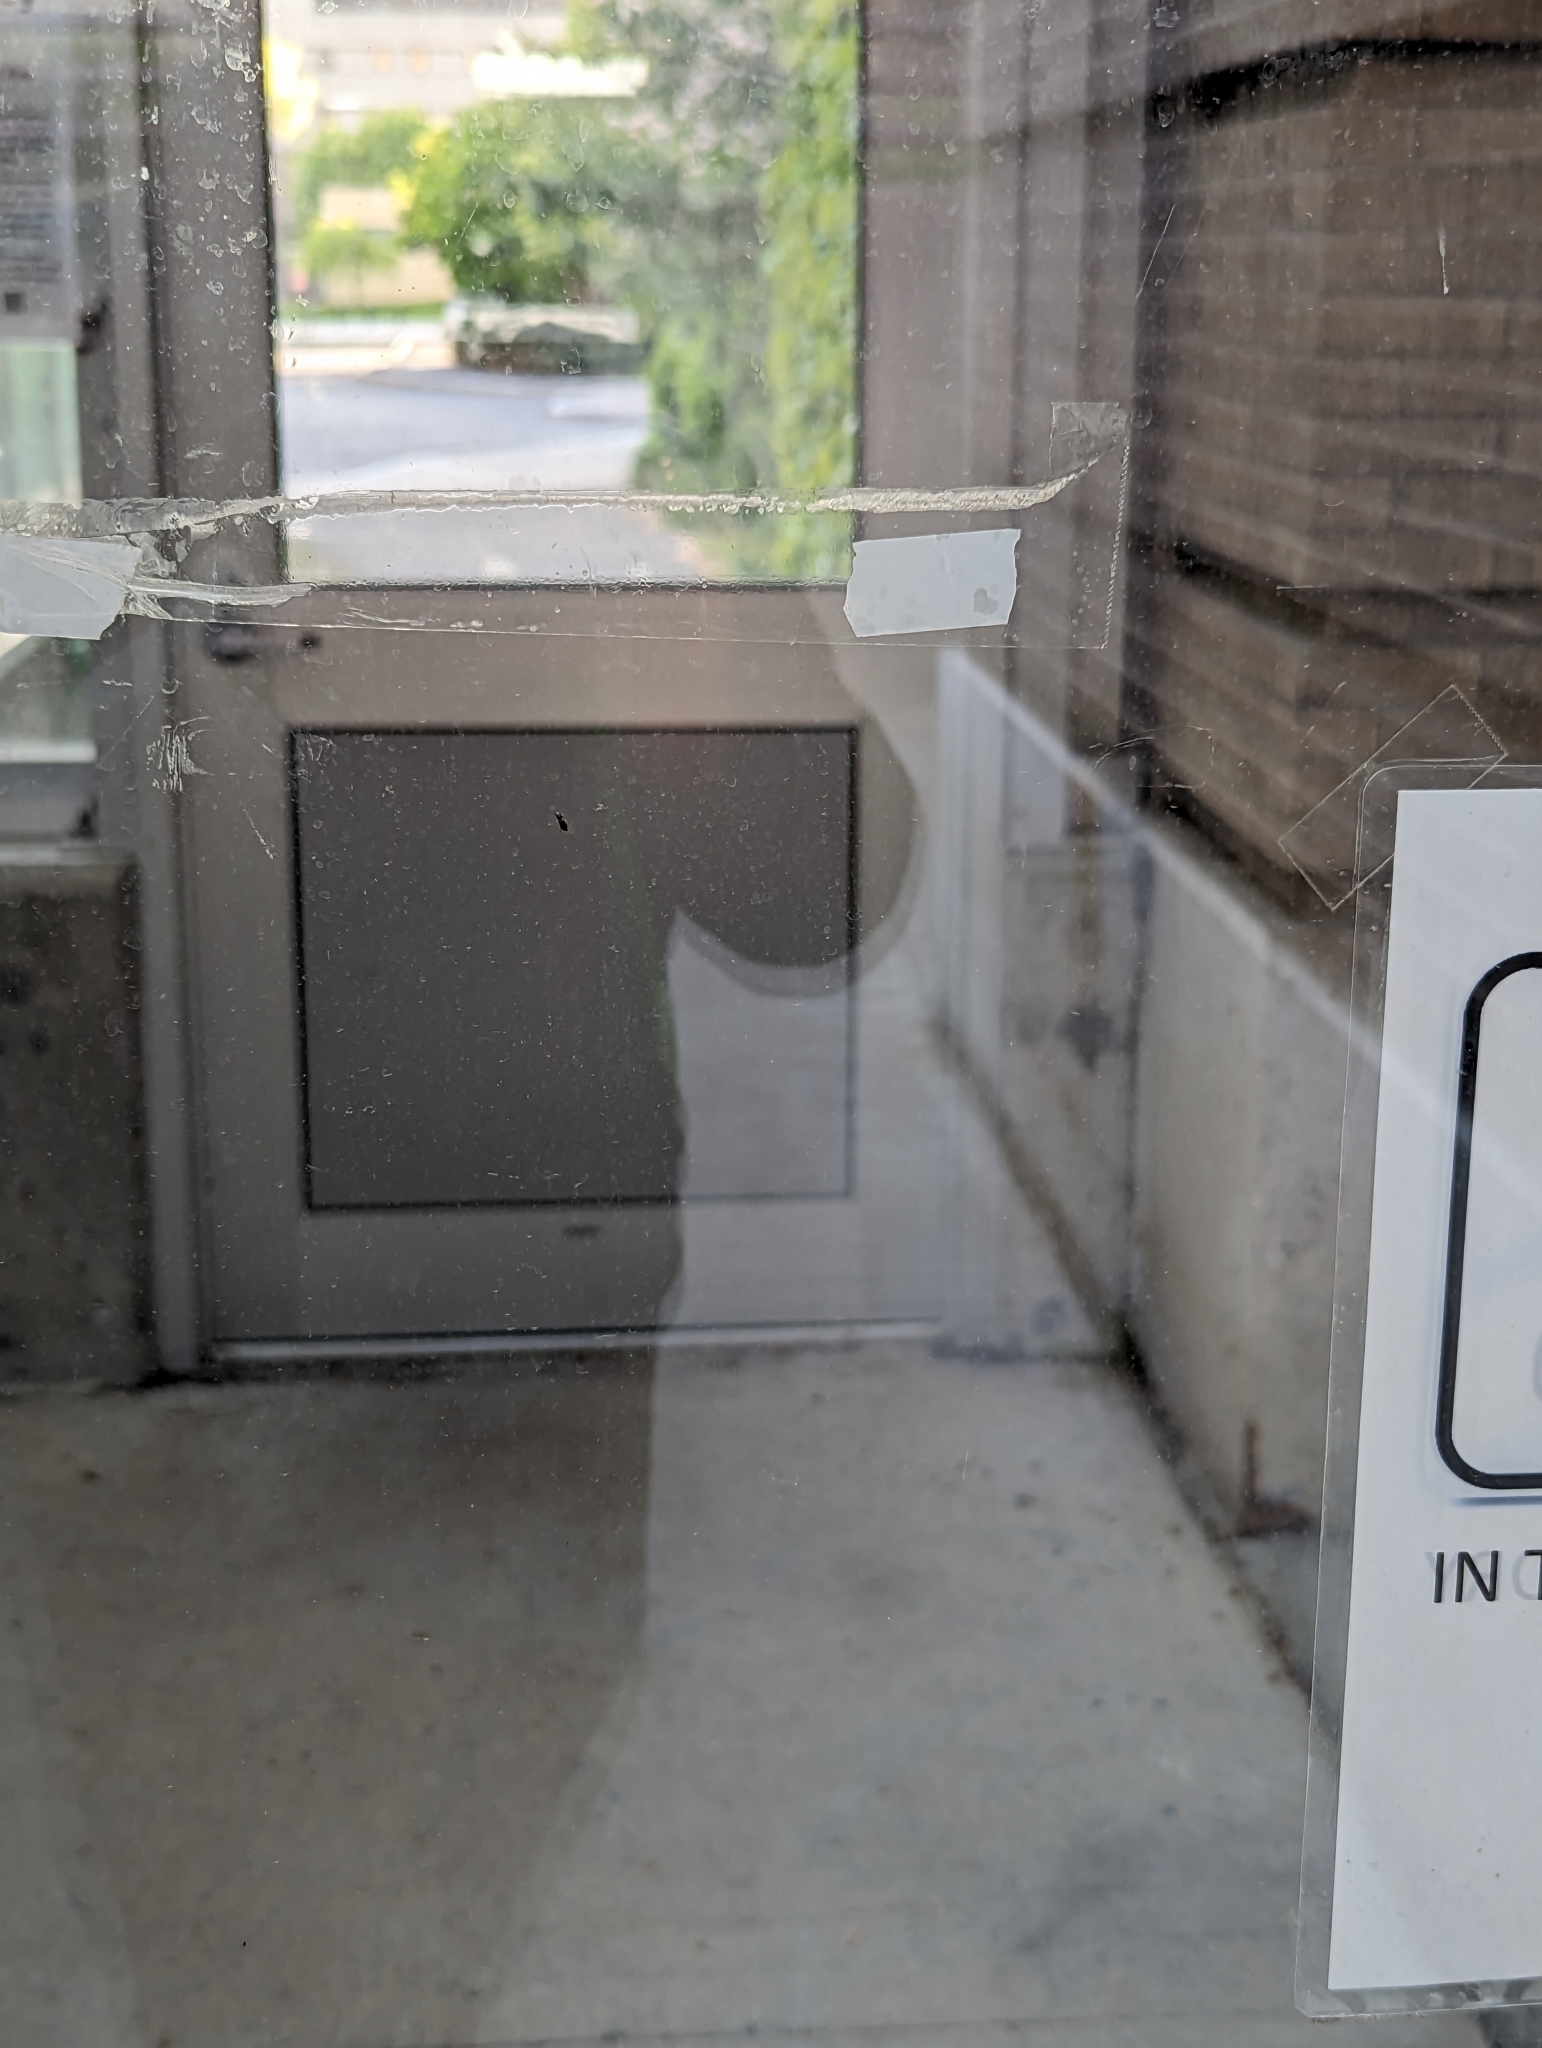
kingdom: Animalia
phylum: Arthropoda
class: Insecta
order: Coleoptera
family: Melyridae
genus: Anthocomus
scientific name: Anthocomus equestris
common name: Black-banded soft-winged flower beetle
